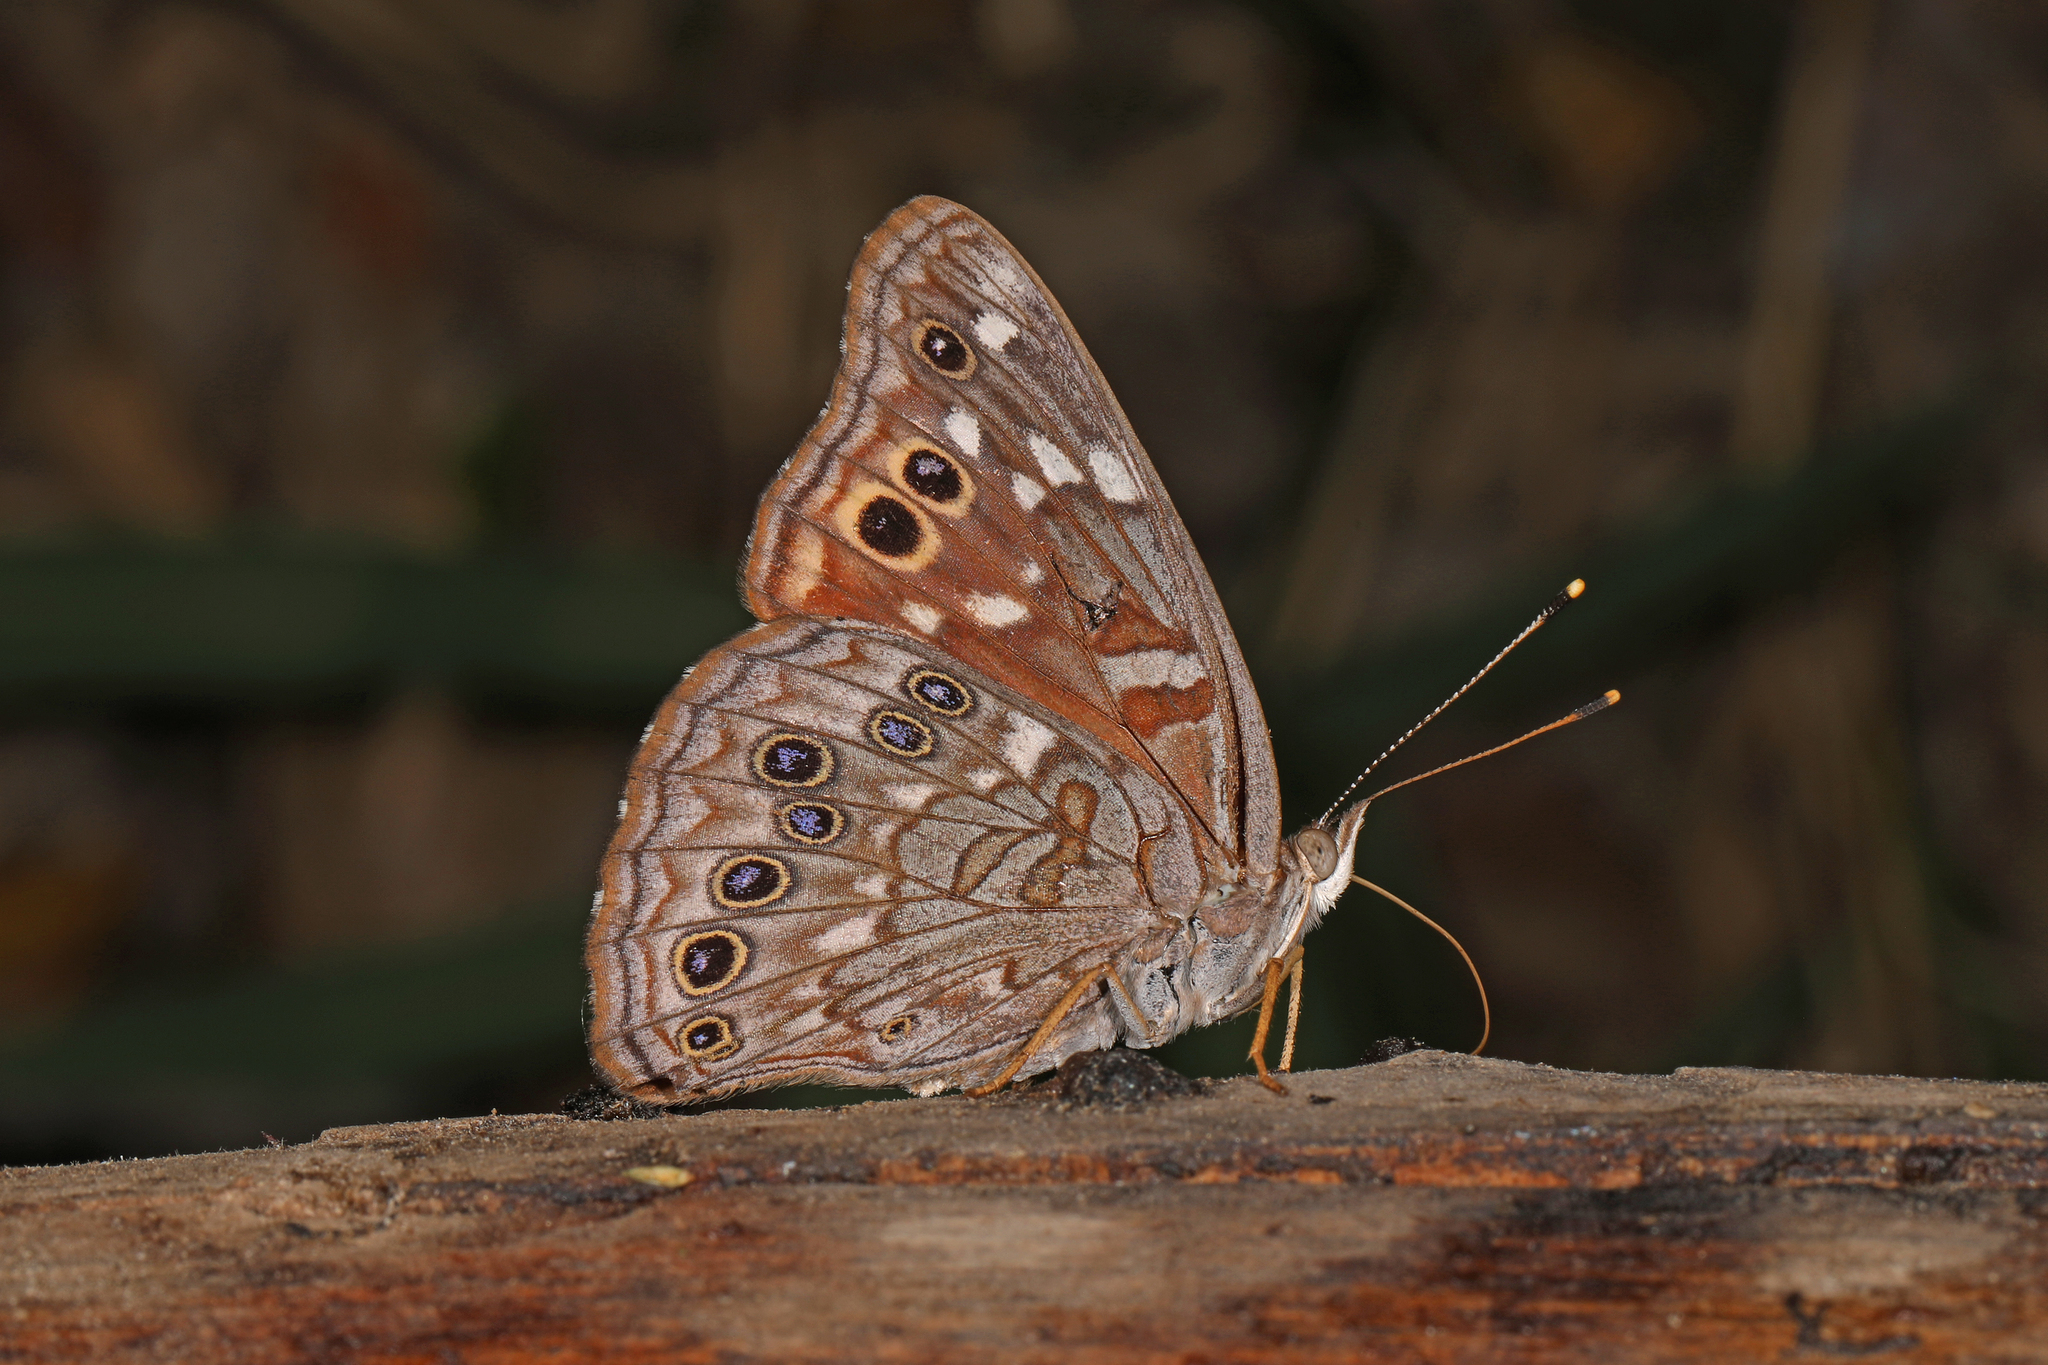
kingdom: Animalia
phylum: Arthropoda
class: Insecta
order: Lepidoptera
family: Nymphalidae
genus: Asterocampa
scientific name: Asterocampa leilia
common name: Empress leilia
